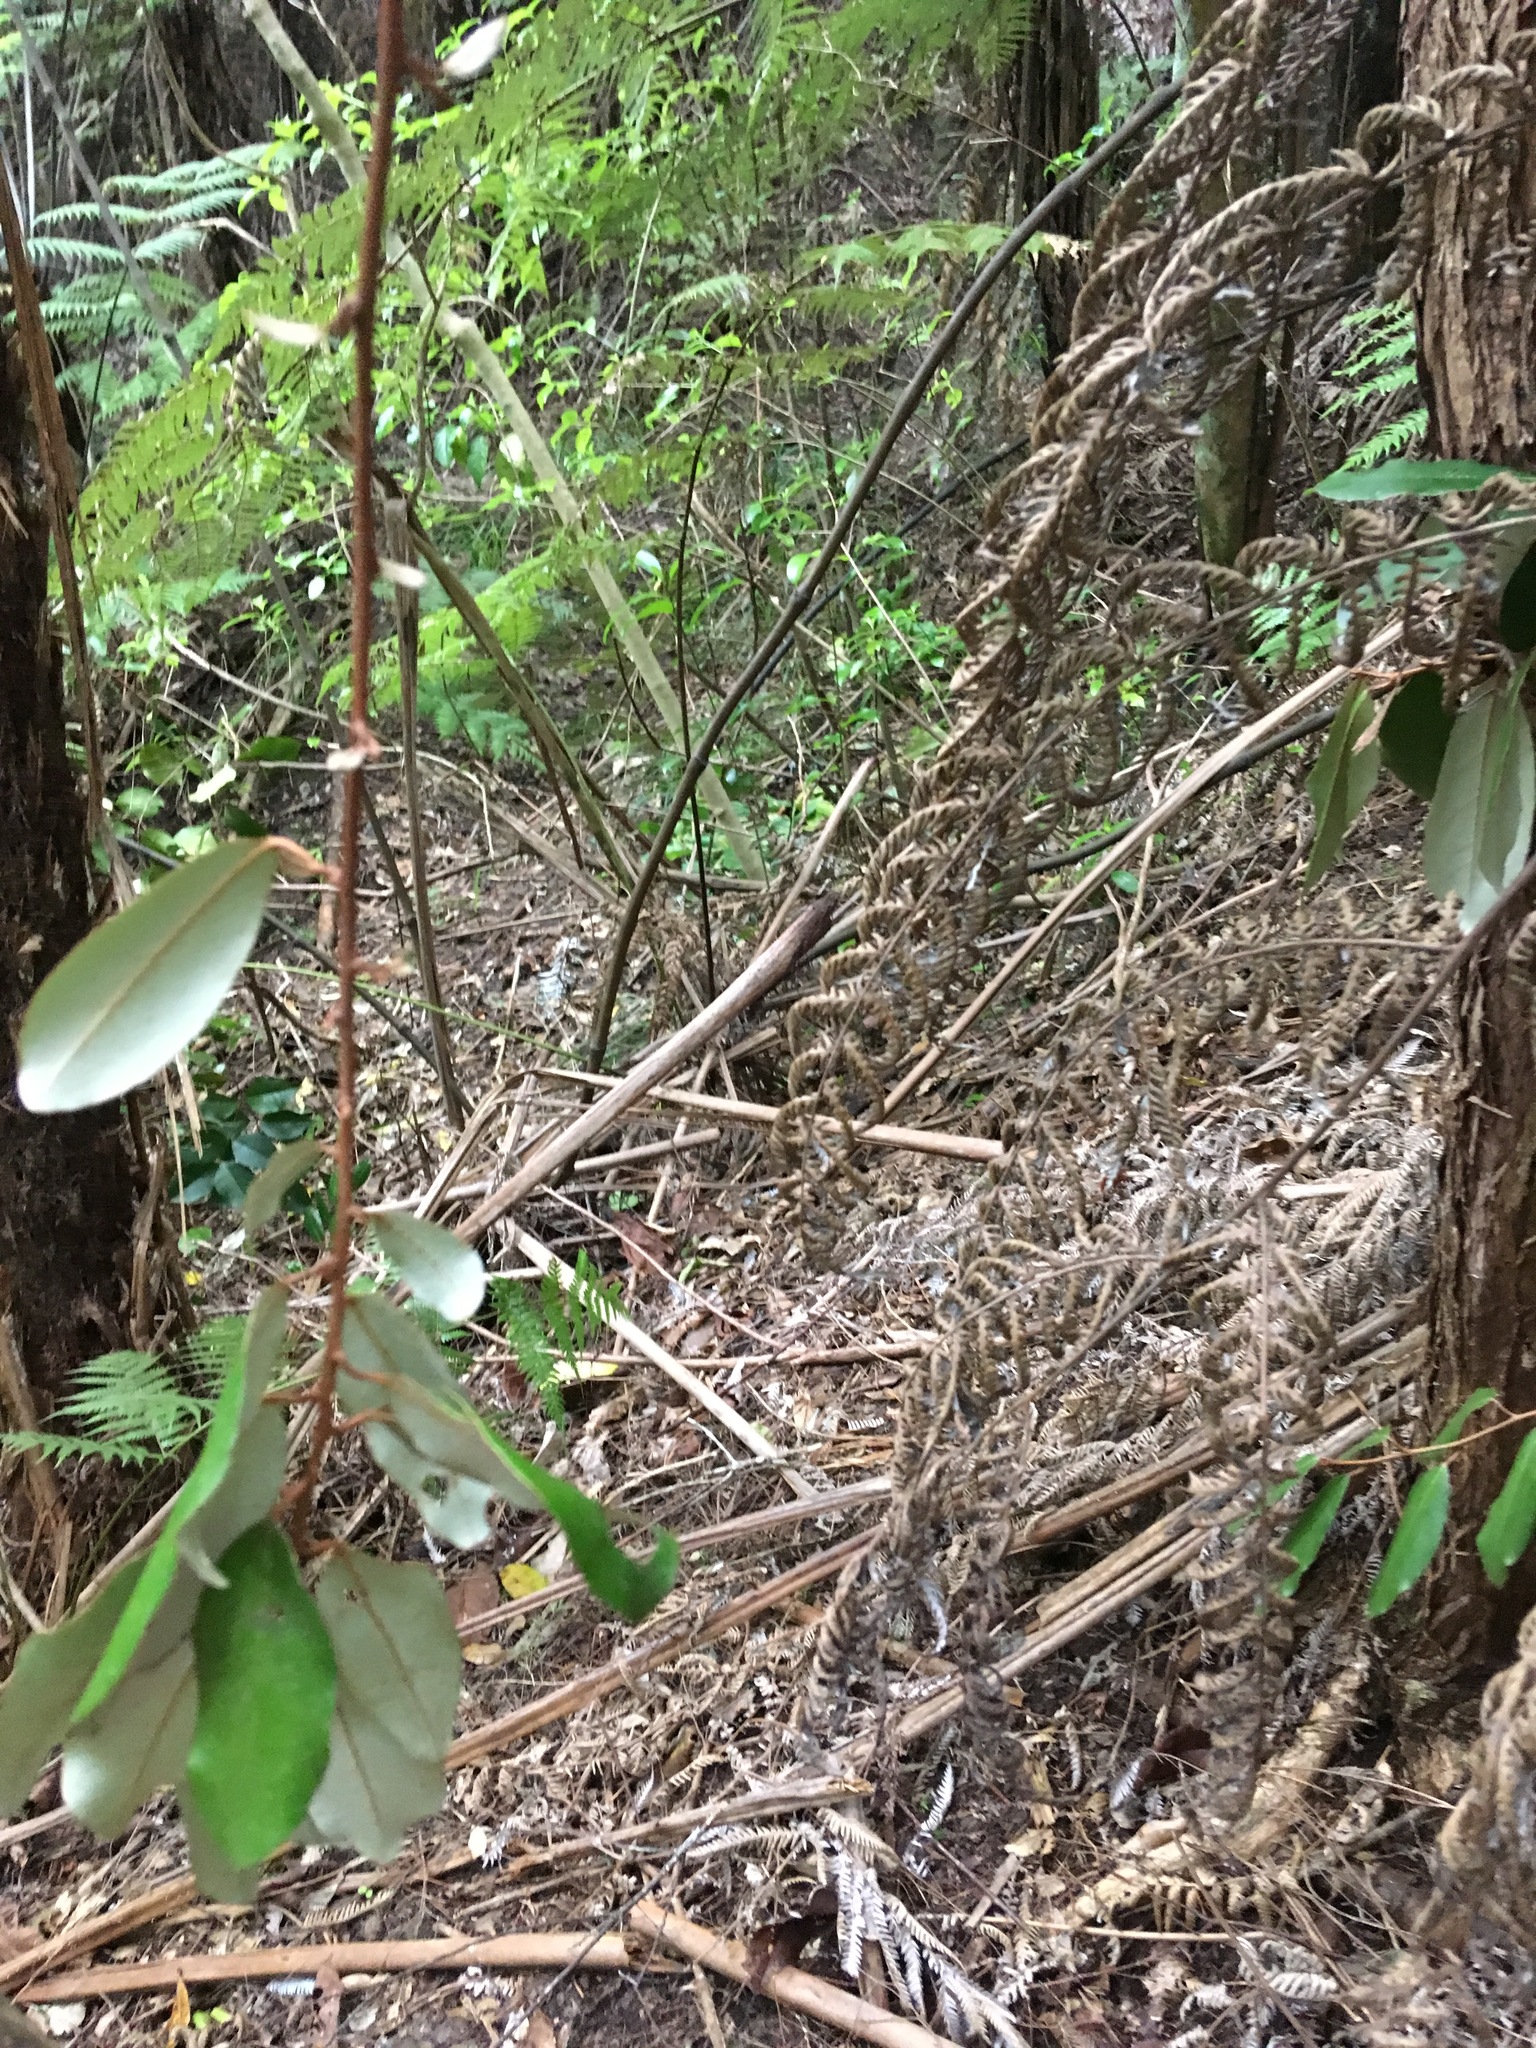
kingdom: Plantae
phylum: Tracheophyta
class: Magnoliopsida
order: Rosales
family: Elaeagnaceae
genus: Elaeagnus
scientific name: Elaeagnus reflexa
